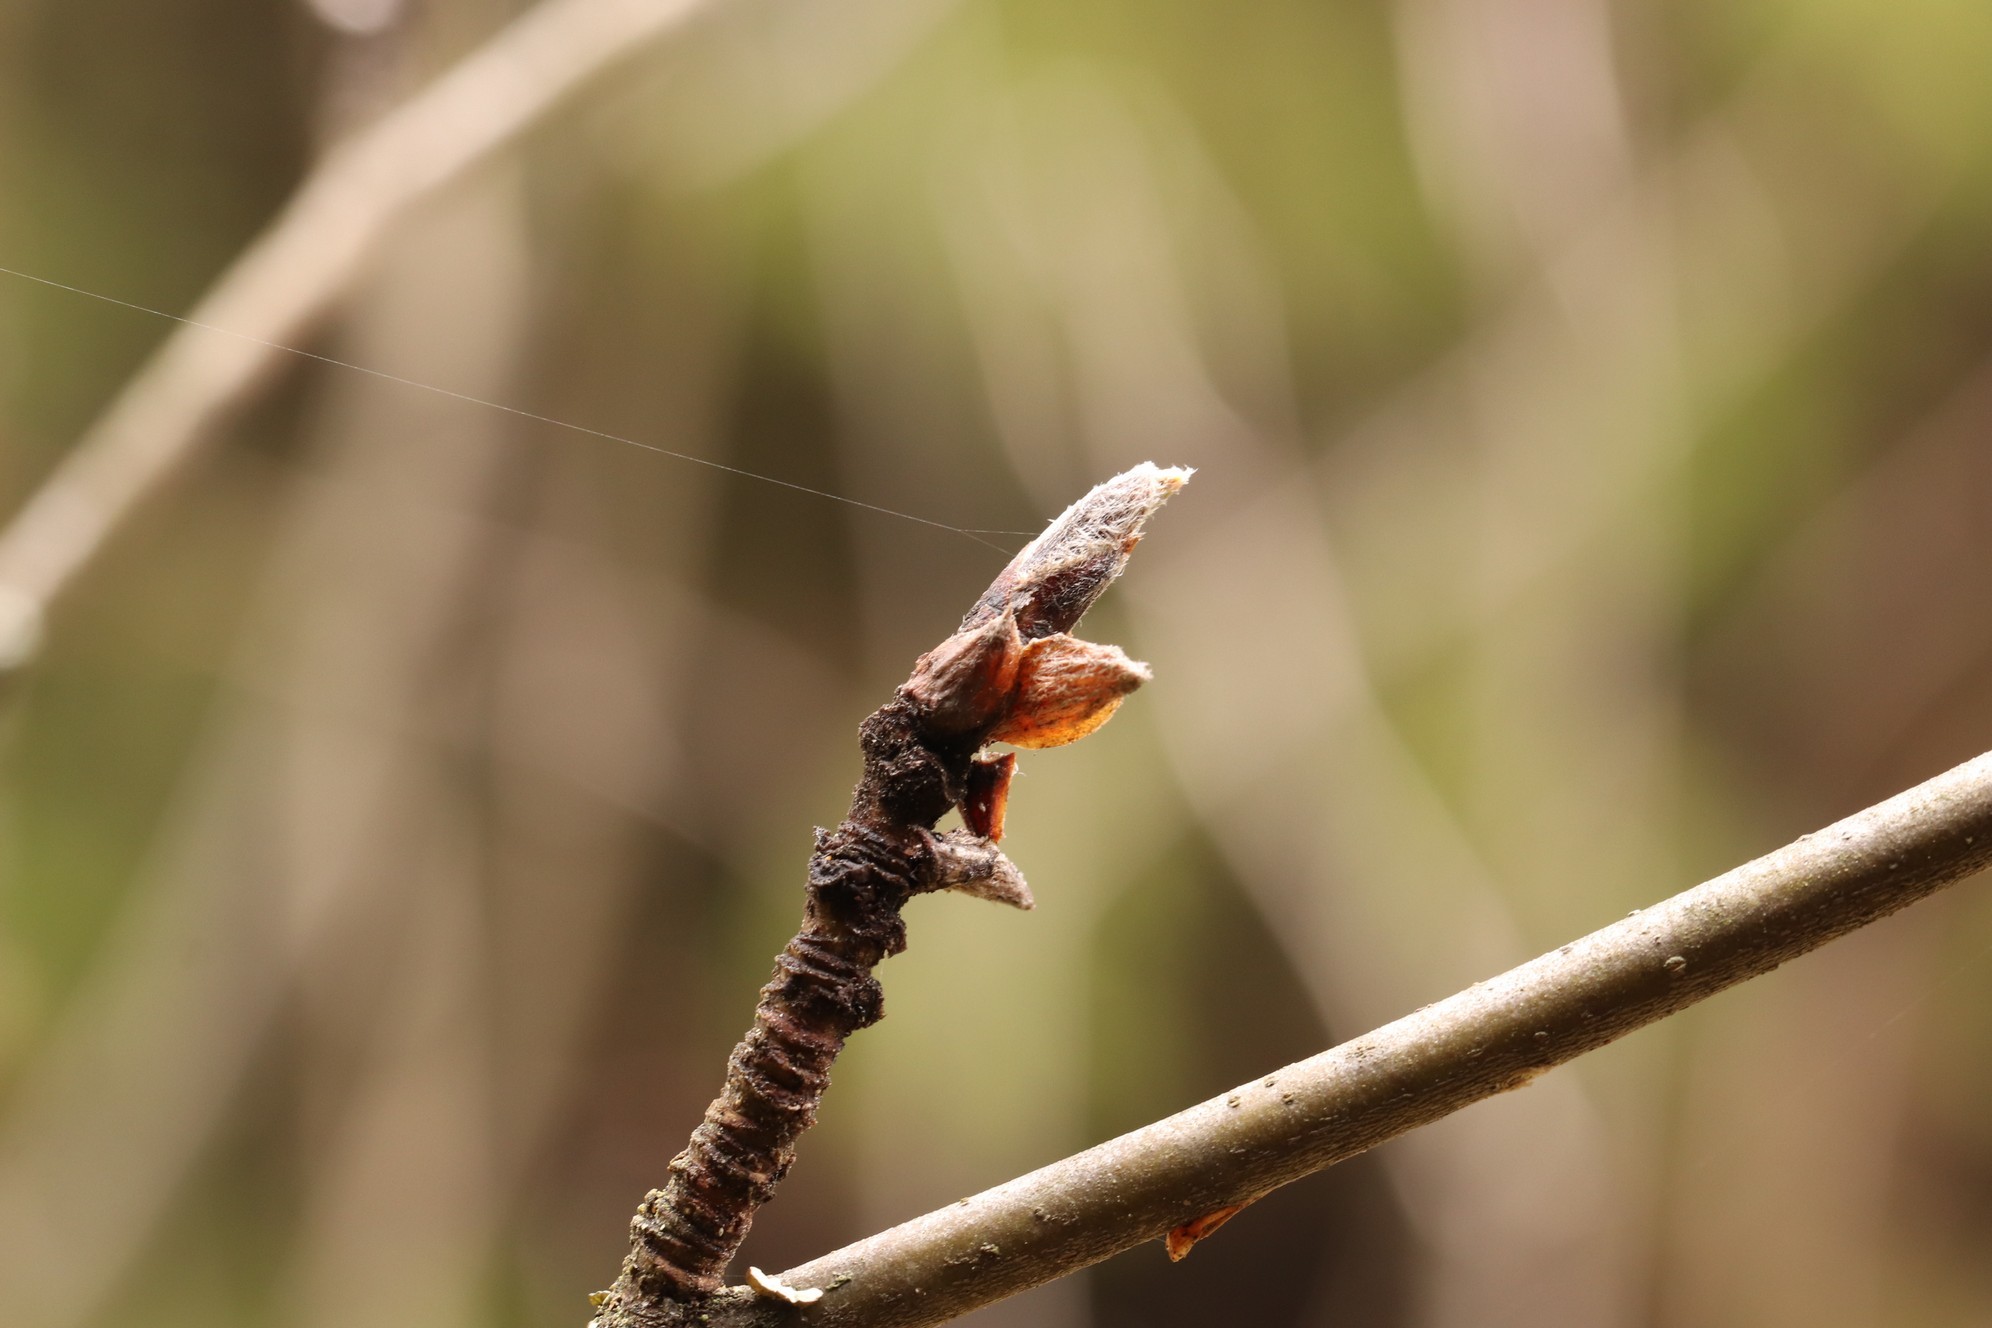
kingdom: Plantae
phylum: Tracheophyta
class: Magnoliopsida
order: Rosales
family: Rosaceae
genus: Sorbus
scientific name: Sorbus aucuparia
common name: Rowan
